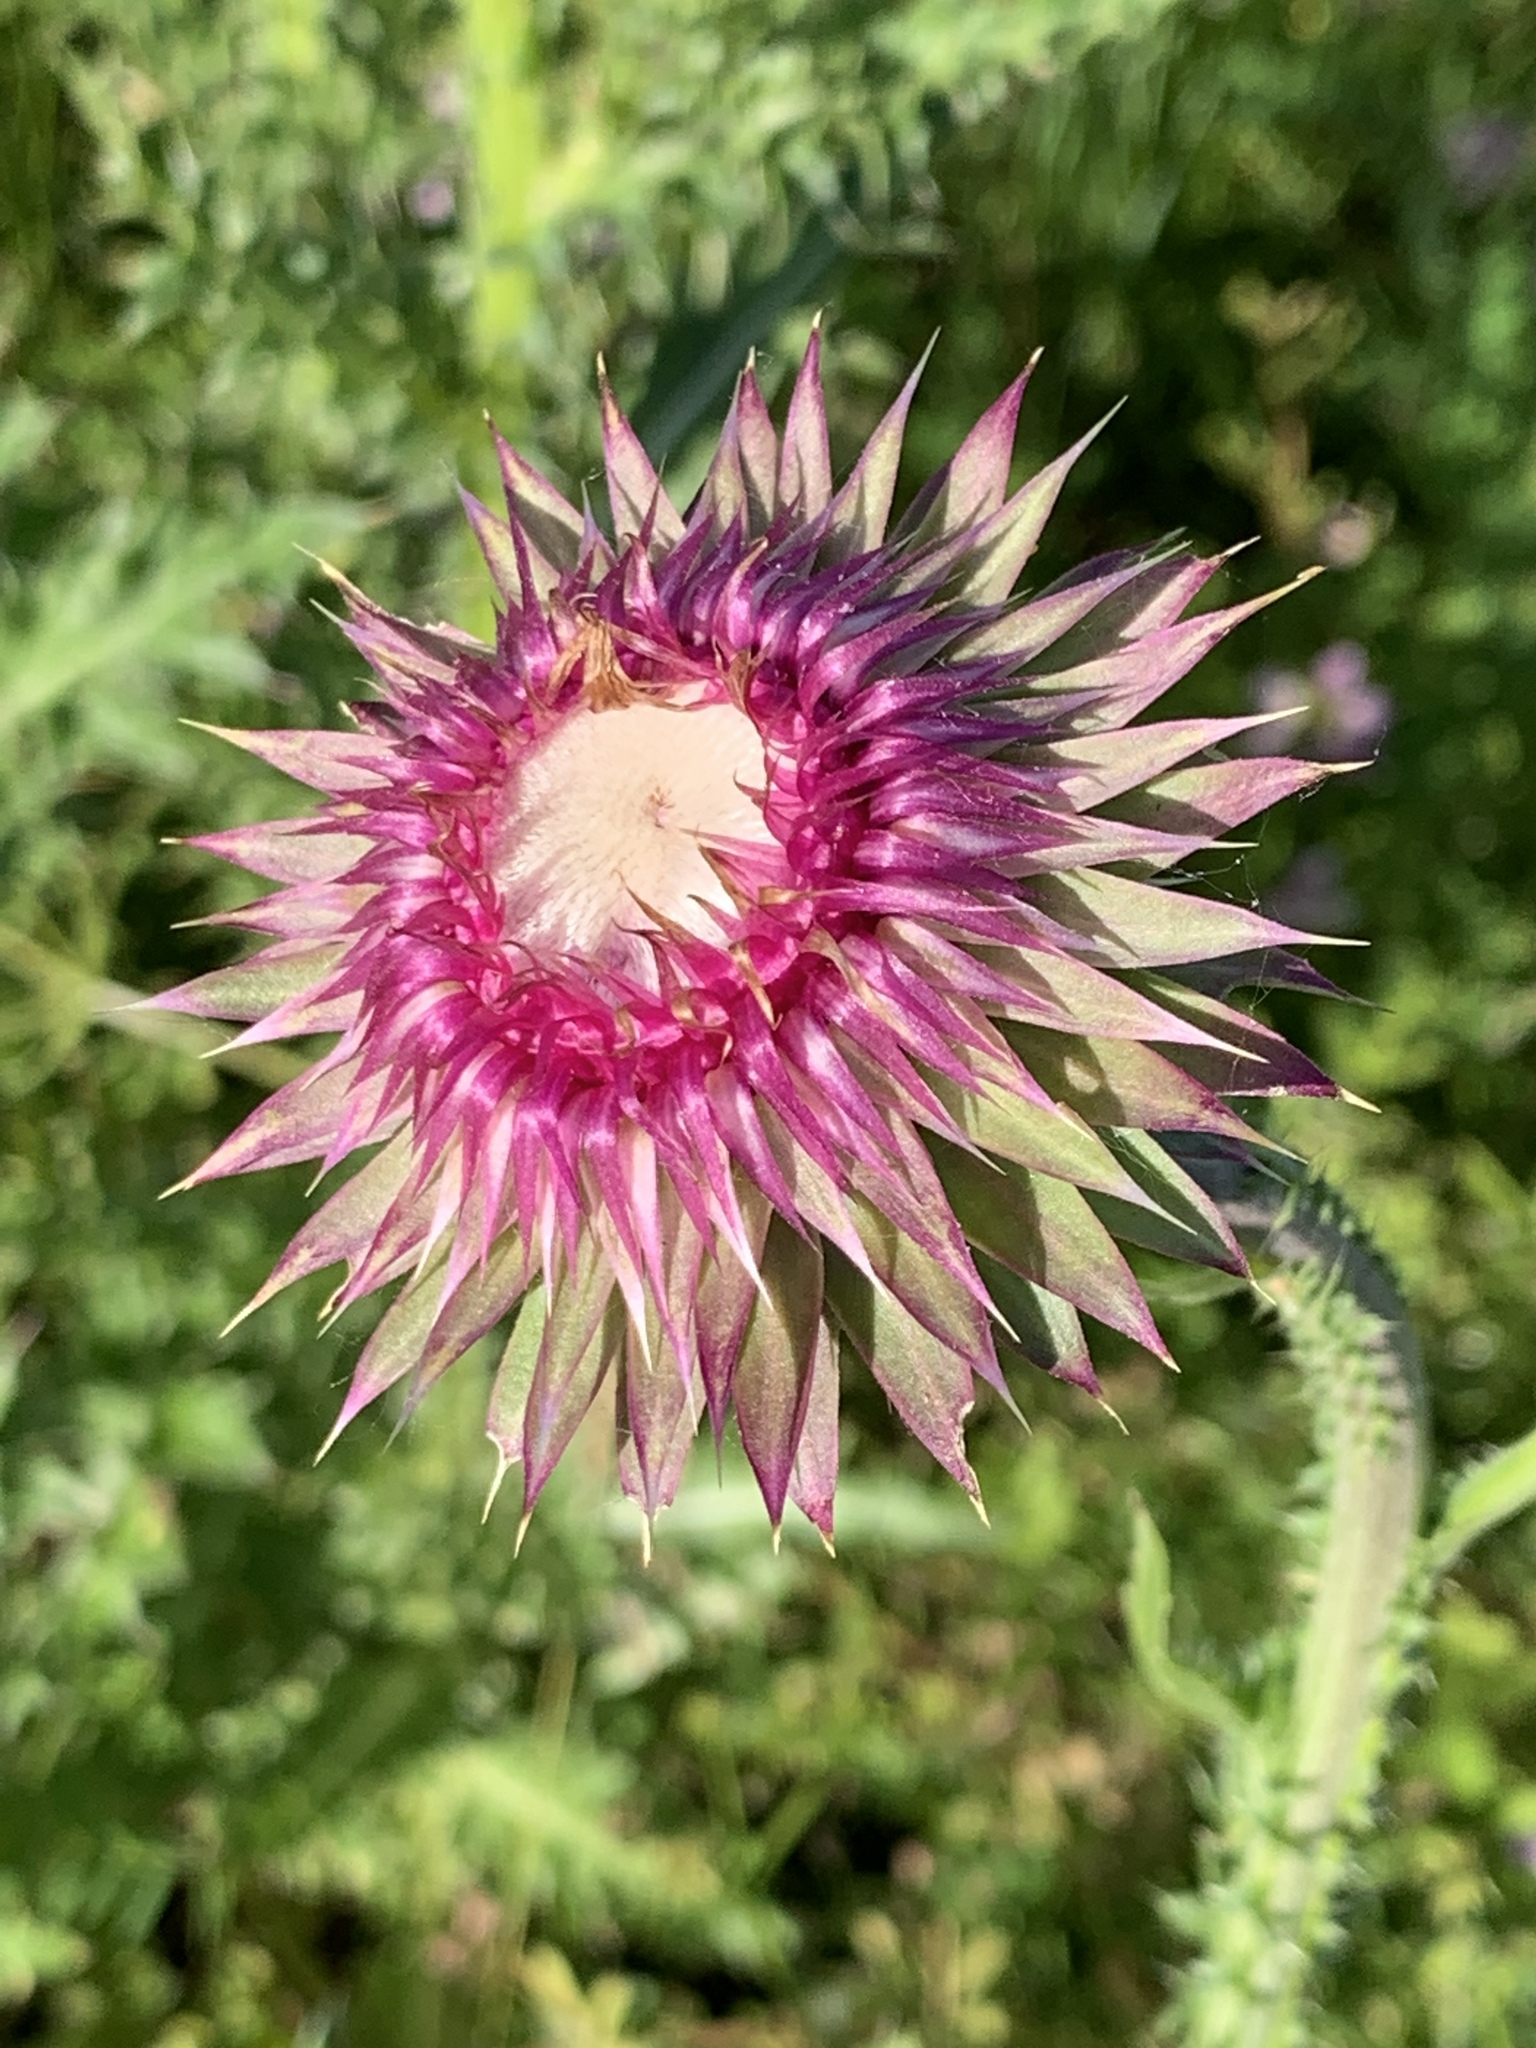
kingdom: Plantae
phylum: Tracheophyta
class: Magnoliopsida
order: Asterales
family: Asteraceae
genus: Carduus
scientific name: Carduus nutans
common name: Musk thistle
